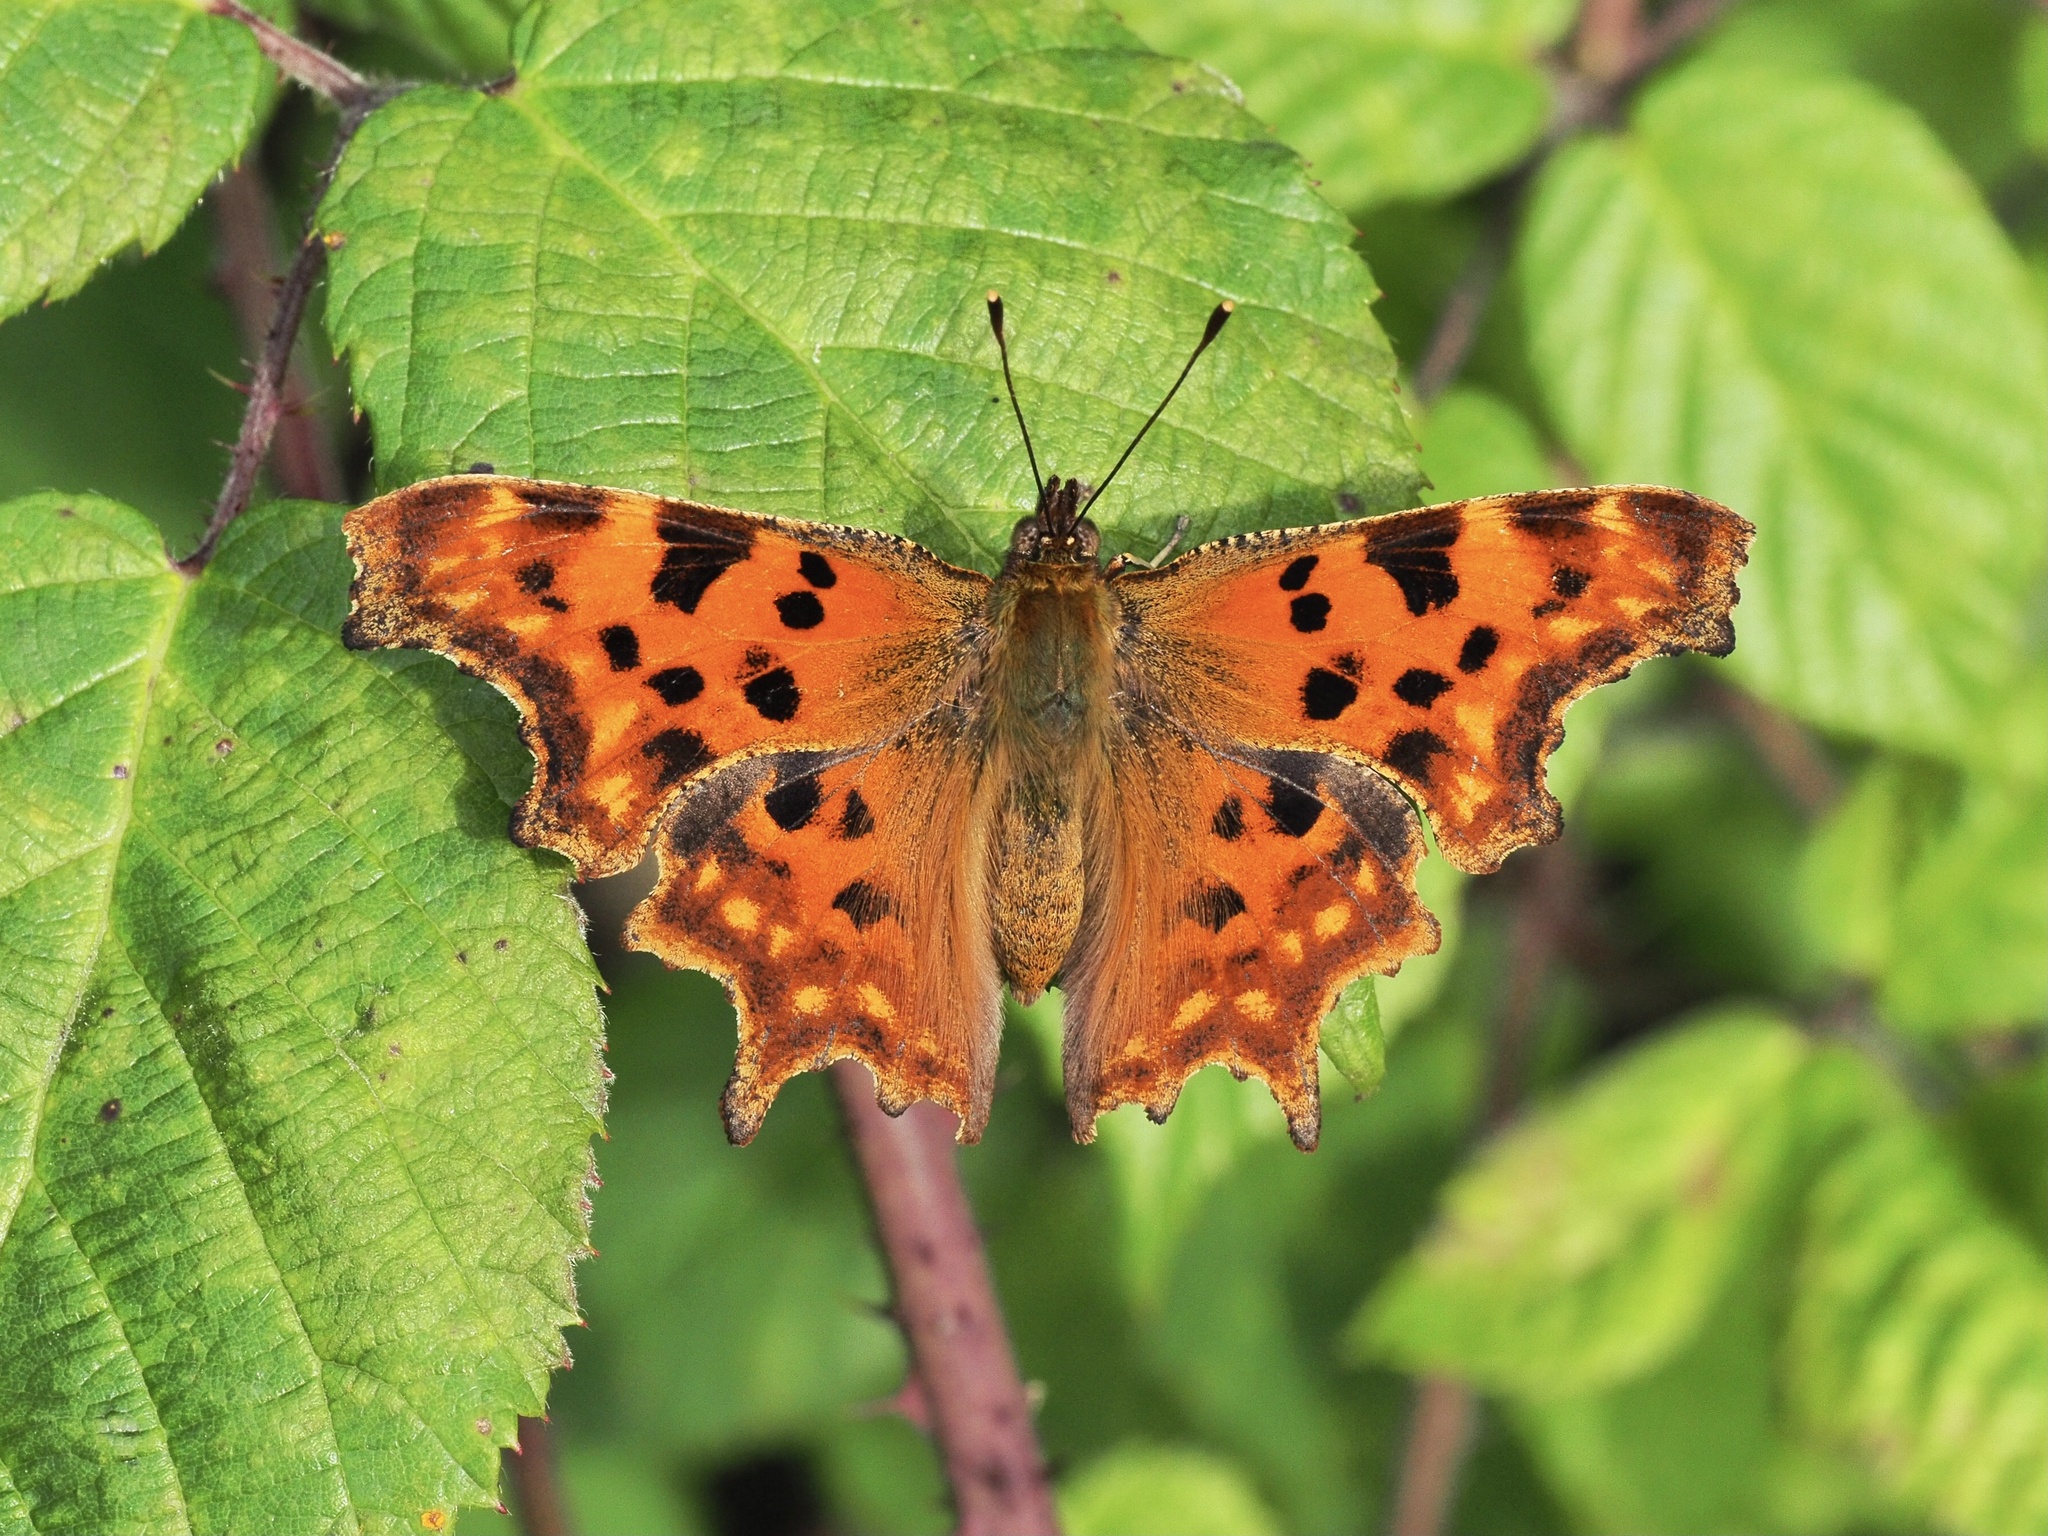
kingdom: Animalia
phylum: Arthropoda
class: Insecta
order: Lepidoptera
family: Nymphalidae
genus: Polygonia
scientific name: Polygonia c-album
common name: Comma
